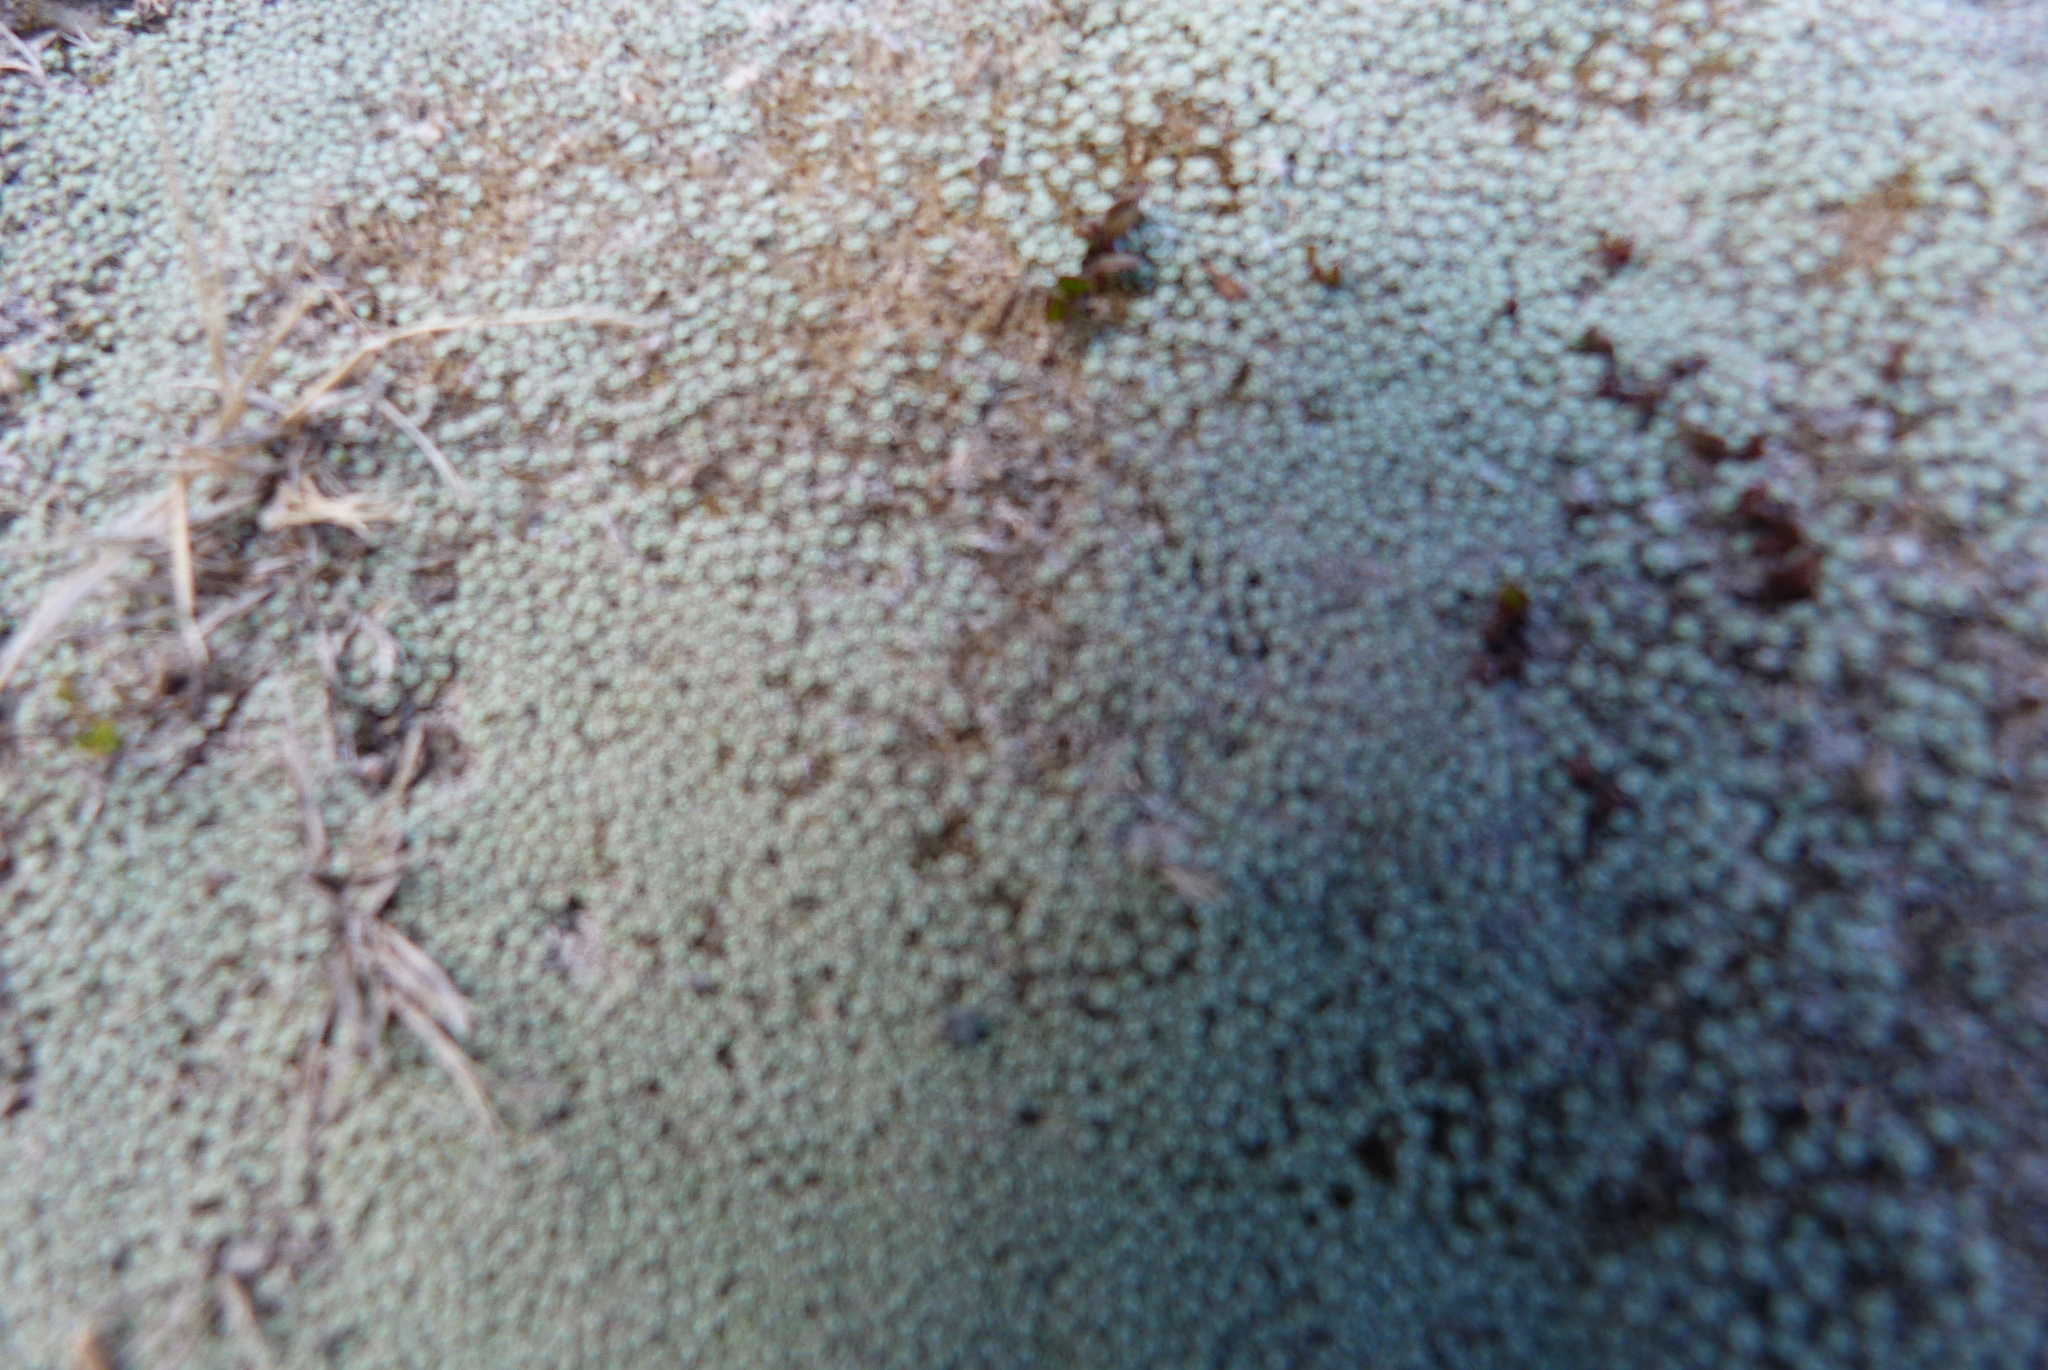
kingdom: Plantae
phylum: Tracheophyta
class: Magnoliopsida
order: Asterales
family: Asteraceae
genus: Raoulia
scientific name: Raoulia australis
